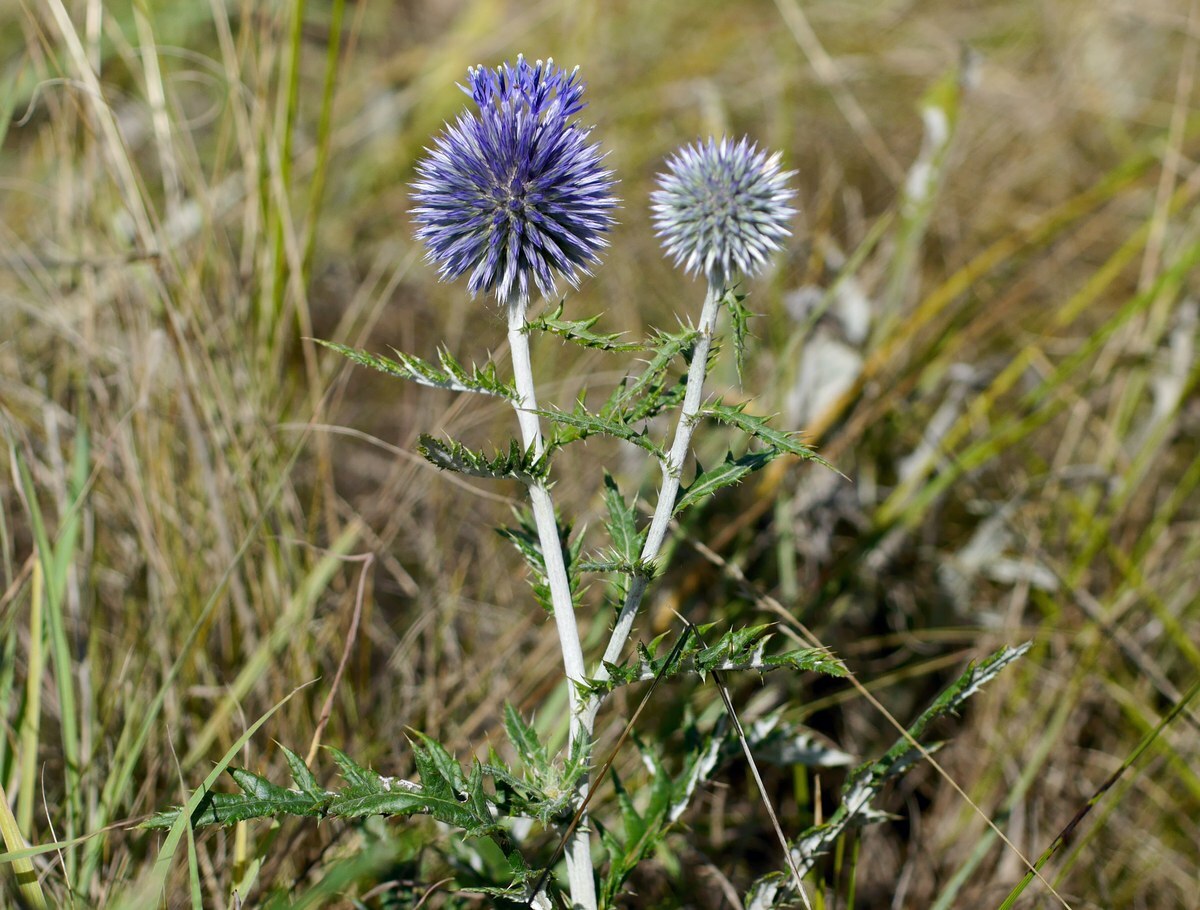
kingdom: Plantae
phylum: Tracheophyta
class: Magnoliopsida
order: Asterales
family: Asteraceae
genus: Echinops
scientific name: Echinops ritro
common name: Globe thistle
